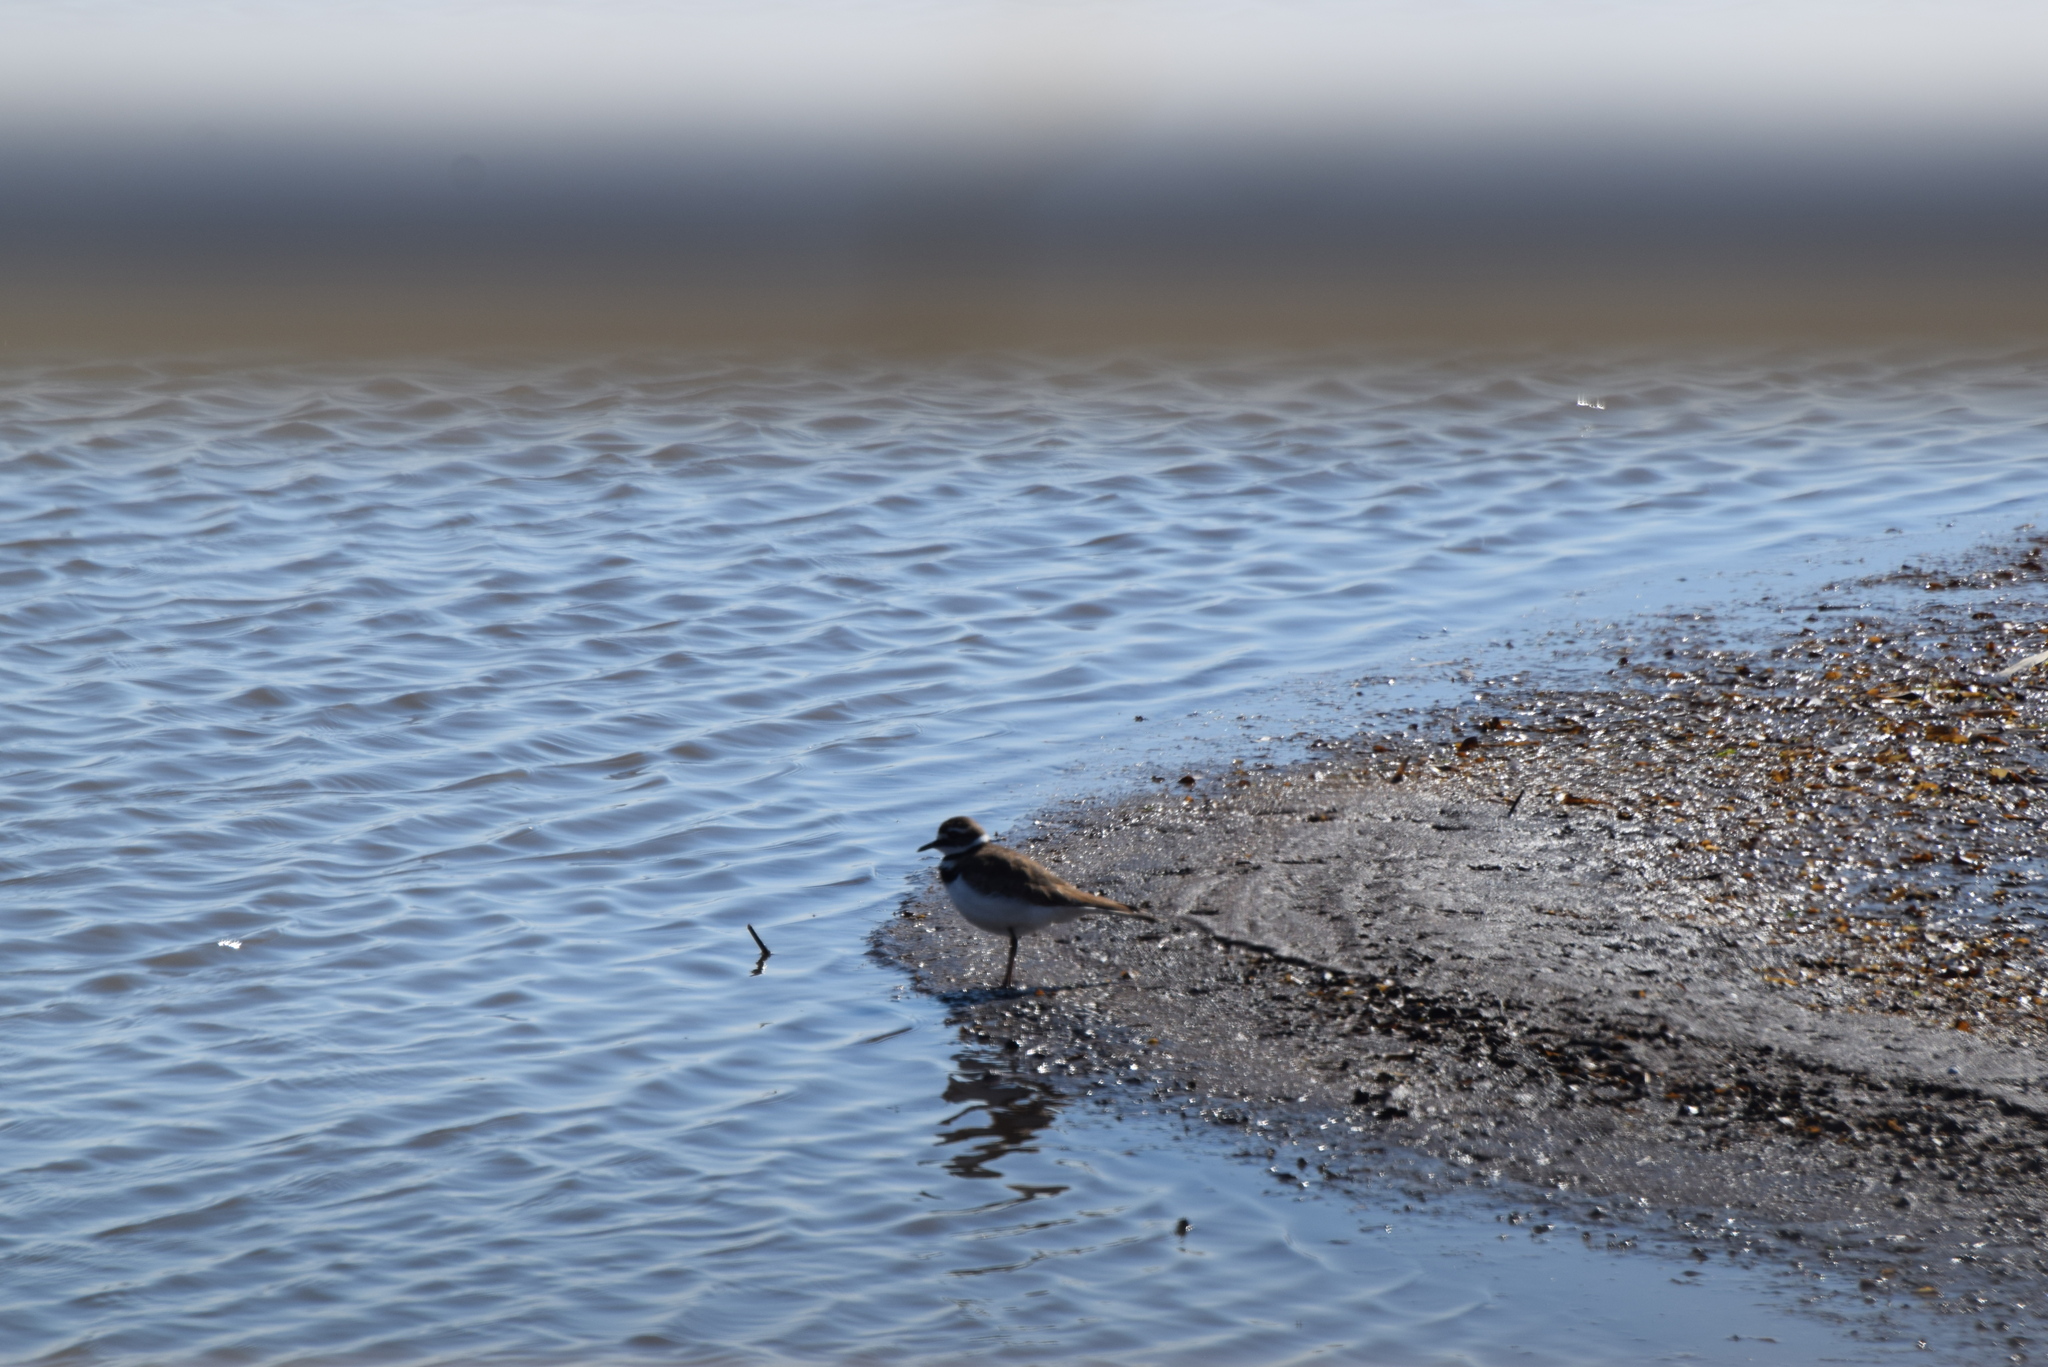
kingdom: Animalia
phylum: Chordata
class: Aves
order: Charadriiformes
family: Charadriidae
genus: Charadrius
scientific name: Charadrius vociferus
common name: Killdeer
